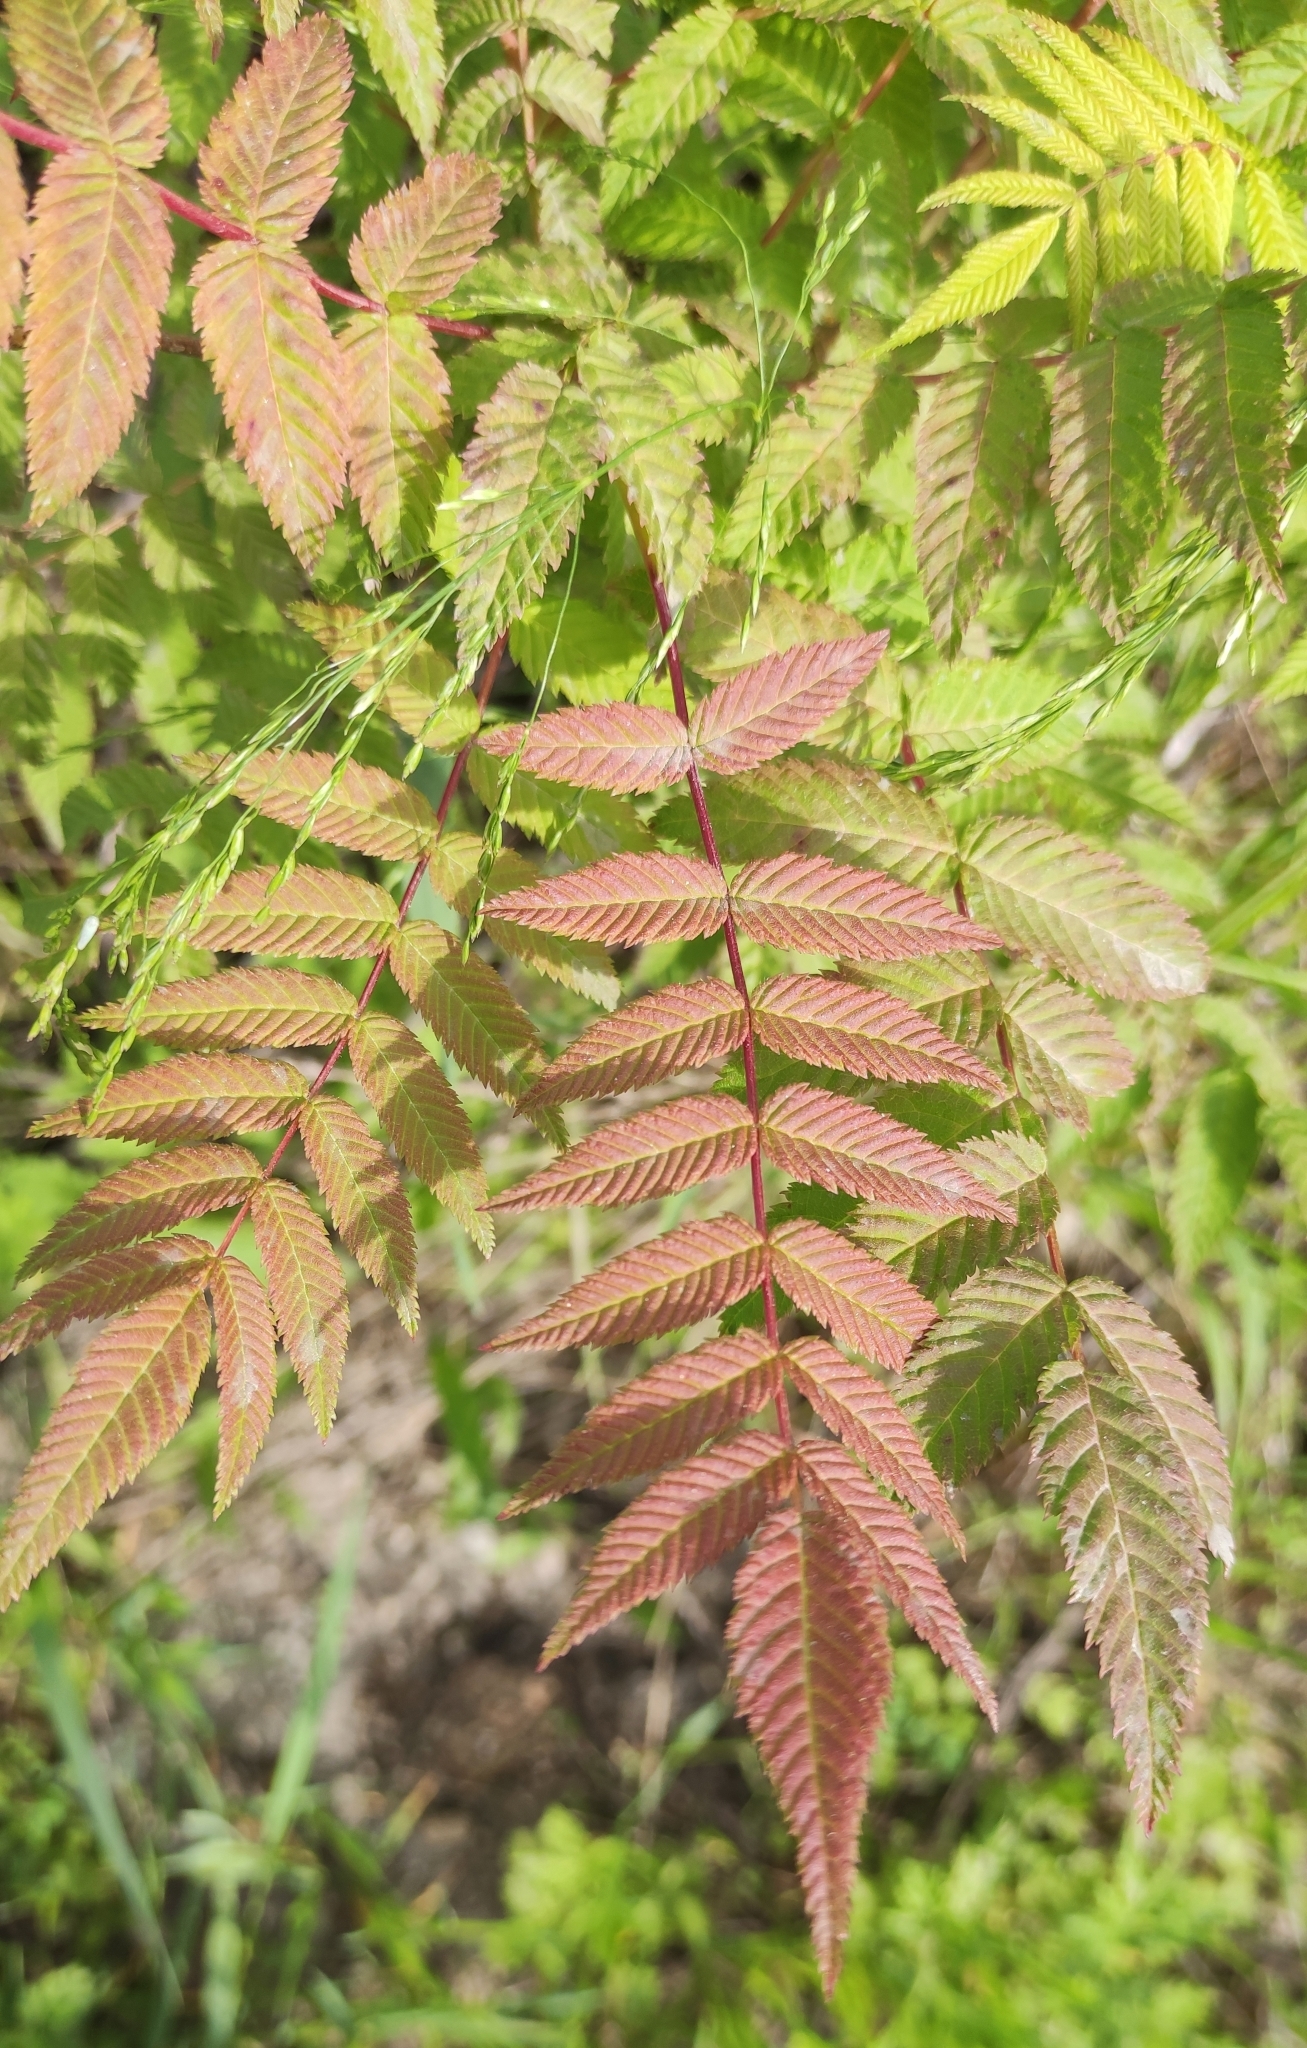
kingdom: Plantae
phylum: Tracheophyta
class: Magnoliopsida
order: Rosales
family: Rosaceae
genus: Sorbaria
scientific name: Sorbaria sorbifolia
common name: False spiraea
